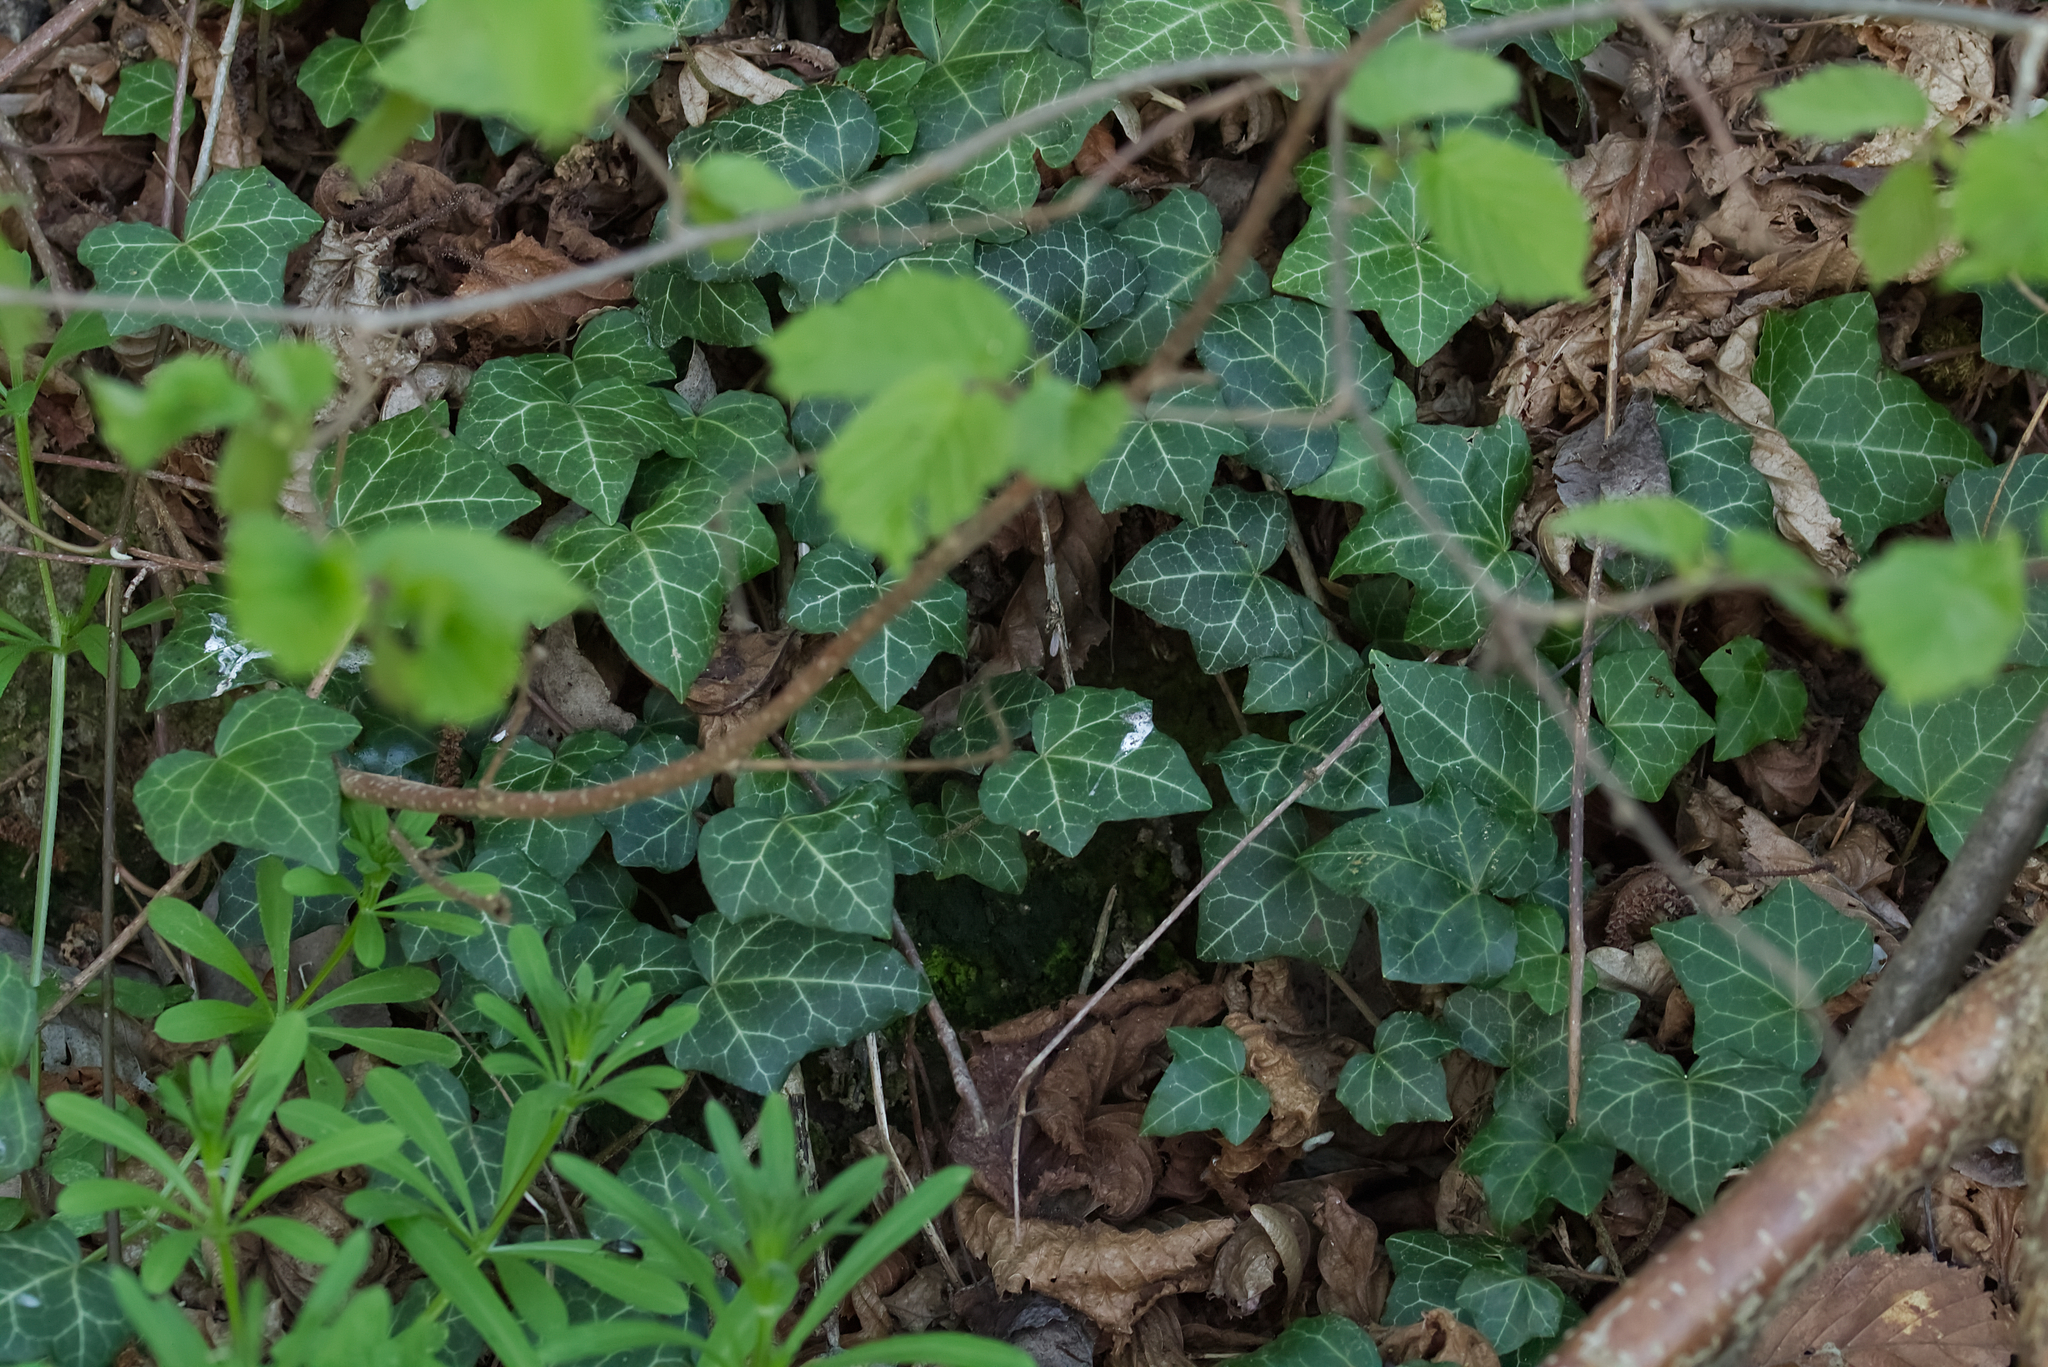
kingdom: Plantae
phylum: Tracheophyta
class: Magnoliopsida
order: Apiales
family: Araliaceae
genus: Hedera
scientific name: Hedera helix
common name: Ivy
